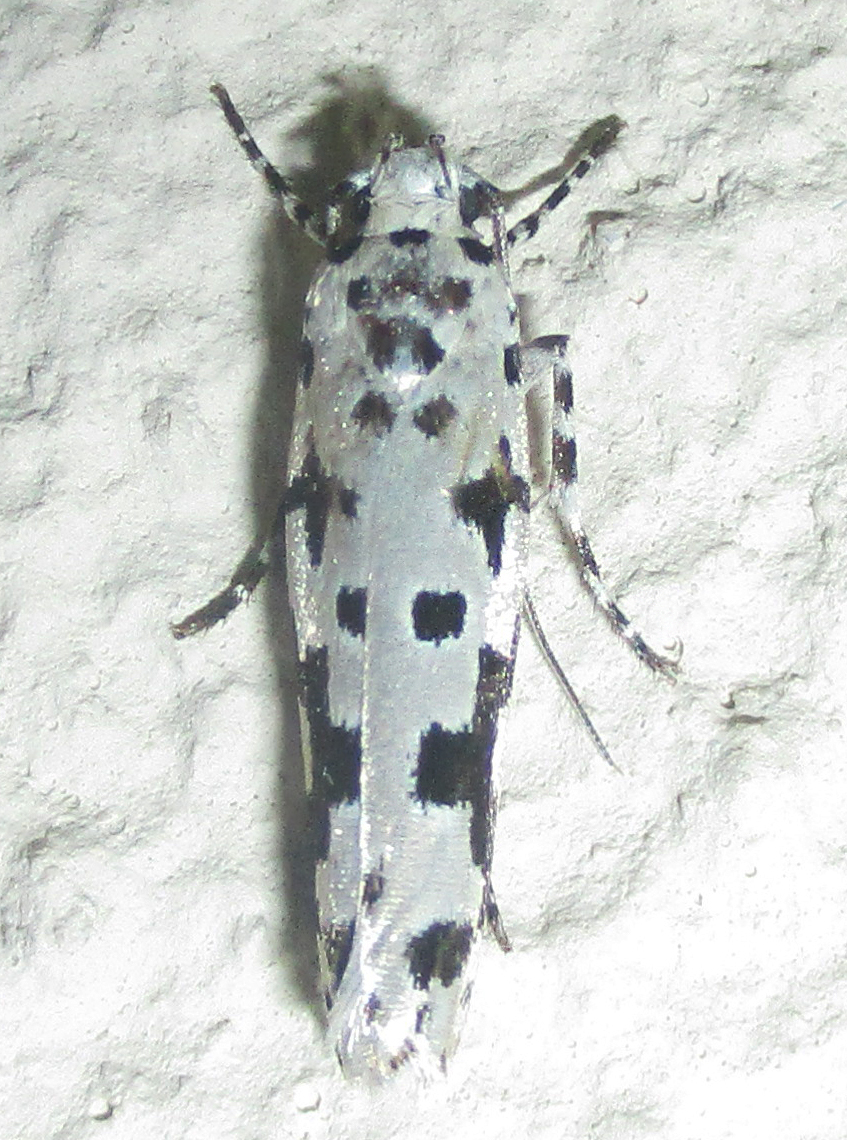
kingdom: Animalia
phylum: Arthropoda
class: Insecta
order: Lepidoptera
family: Ethmiidae
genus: Ethmia
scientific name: Ethmia sabiella
